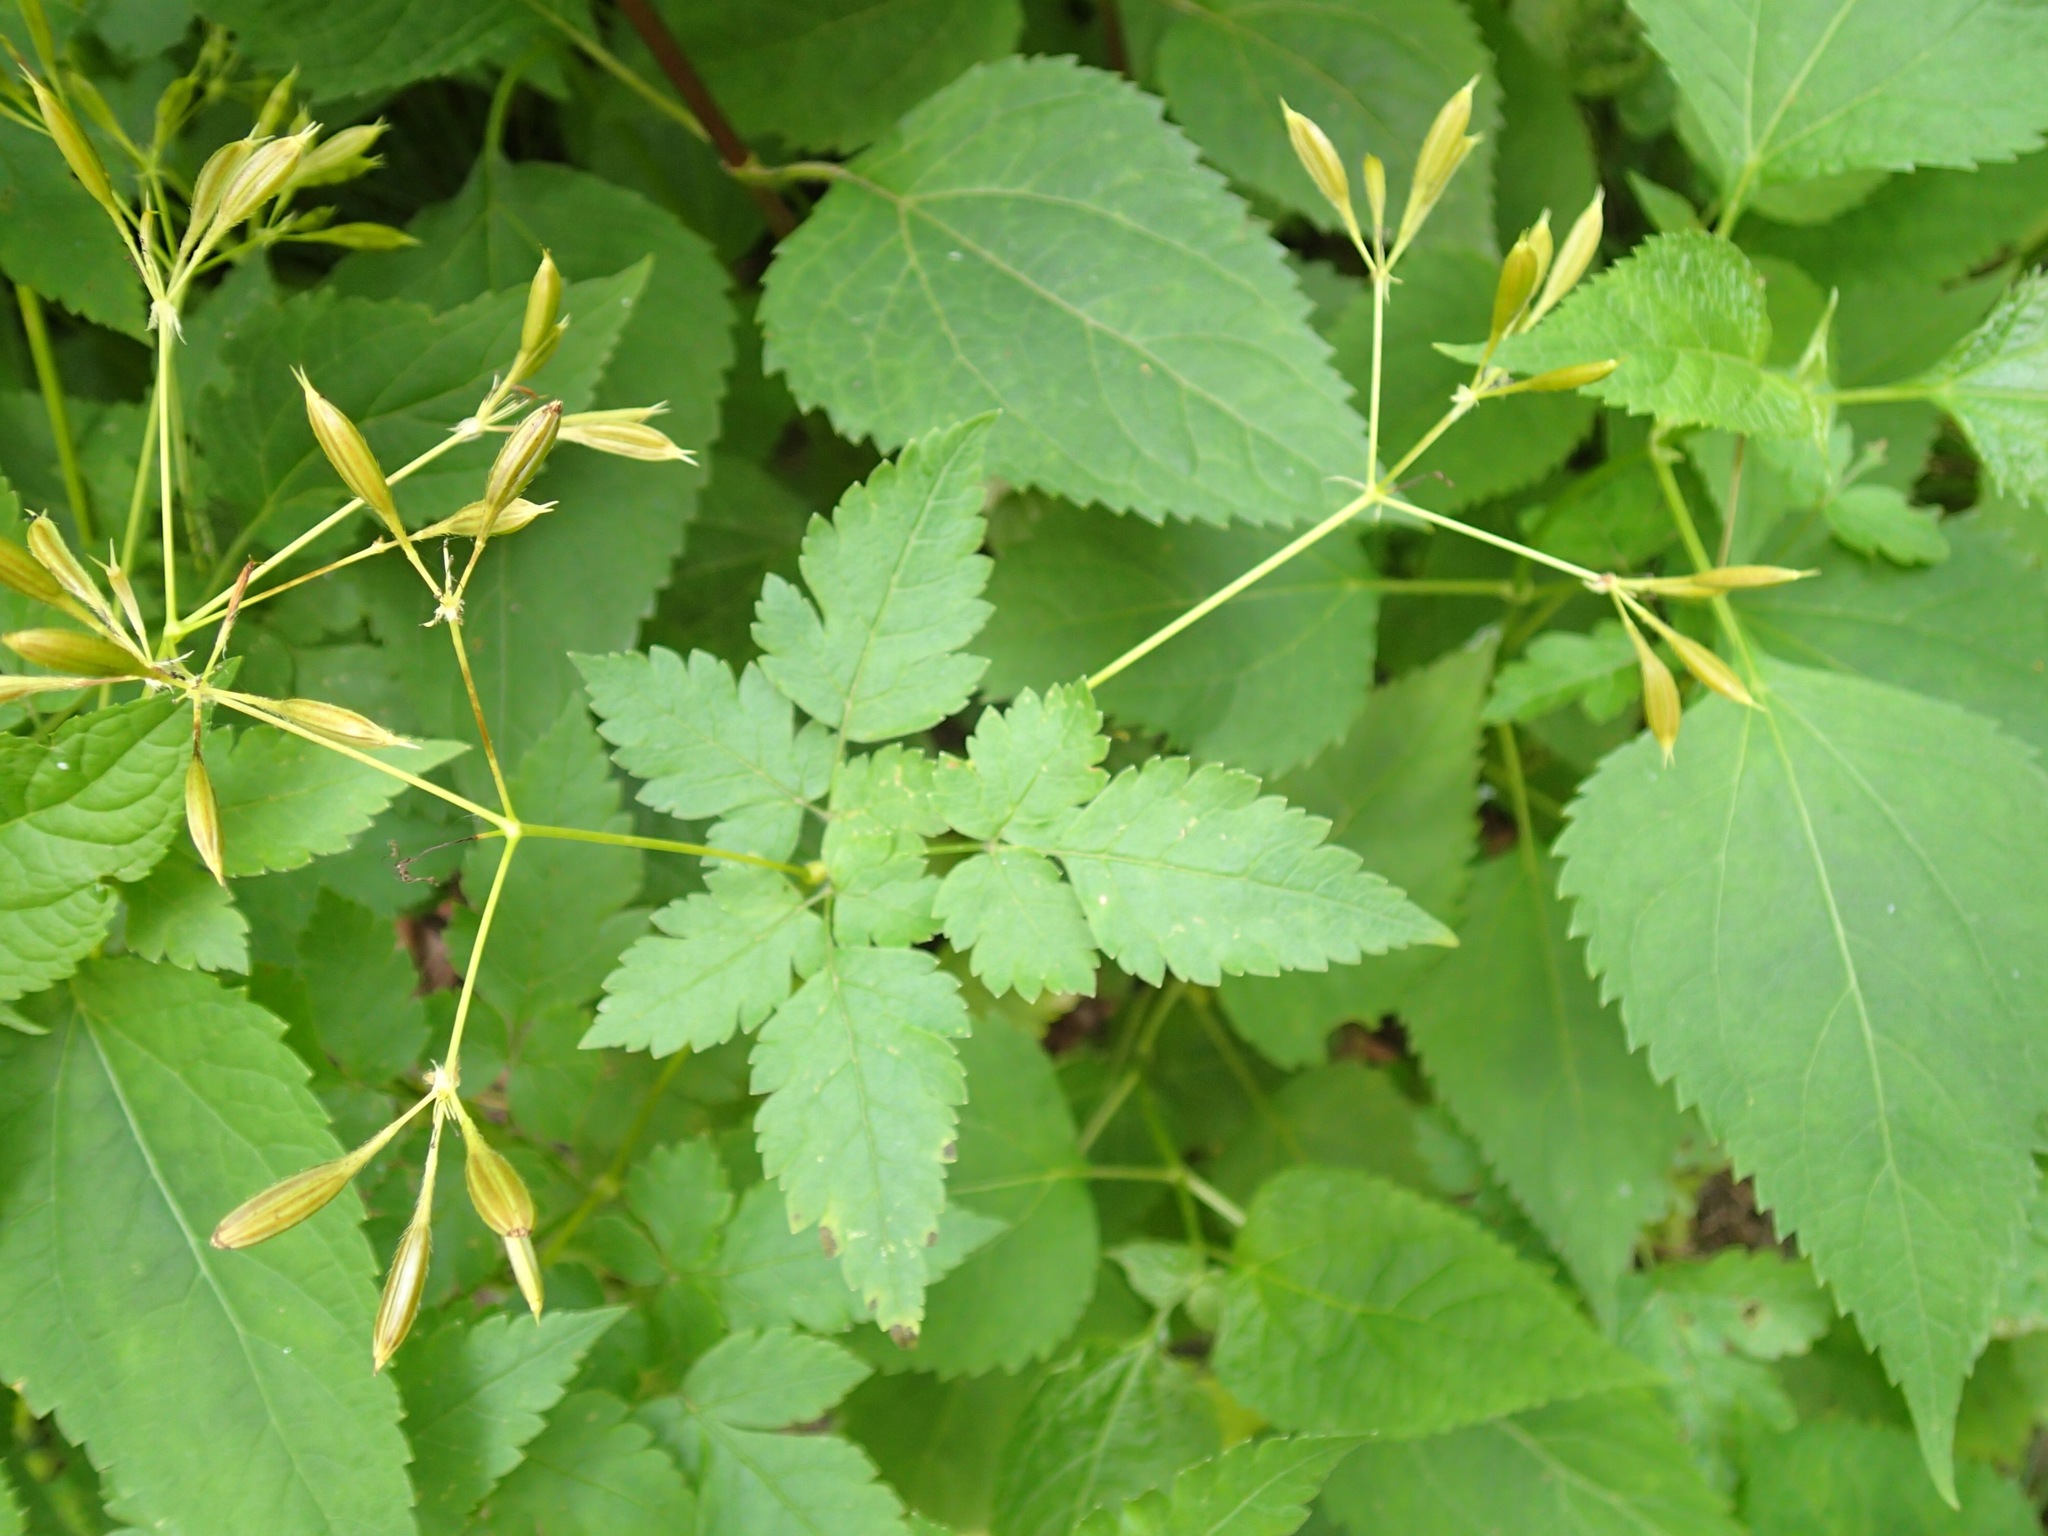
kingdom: Plantae
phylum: Tracheophyta
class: Magnoliopsida
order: Apiales
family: Apiaceae
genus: Osmorhiza
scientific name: Osmorhiza longistylis
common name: Smooth sweet cicely
